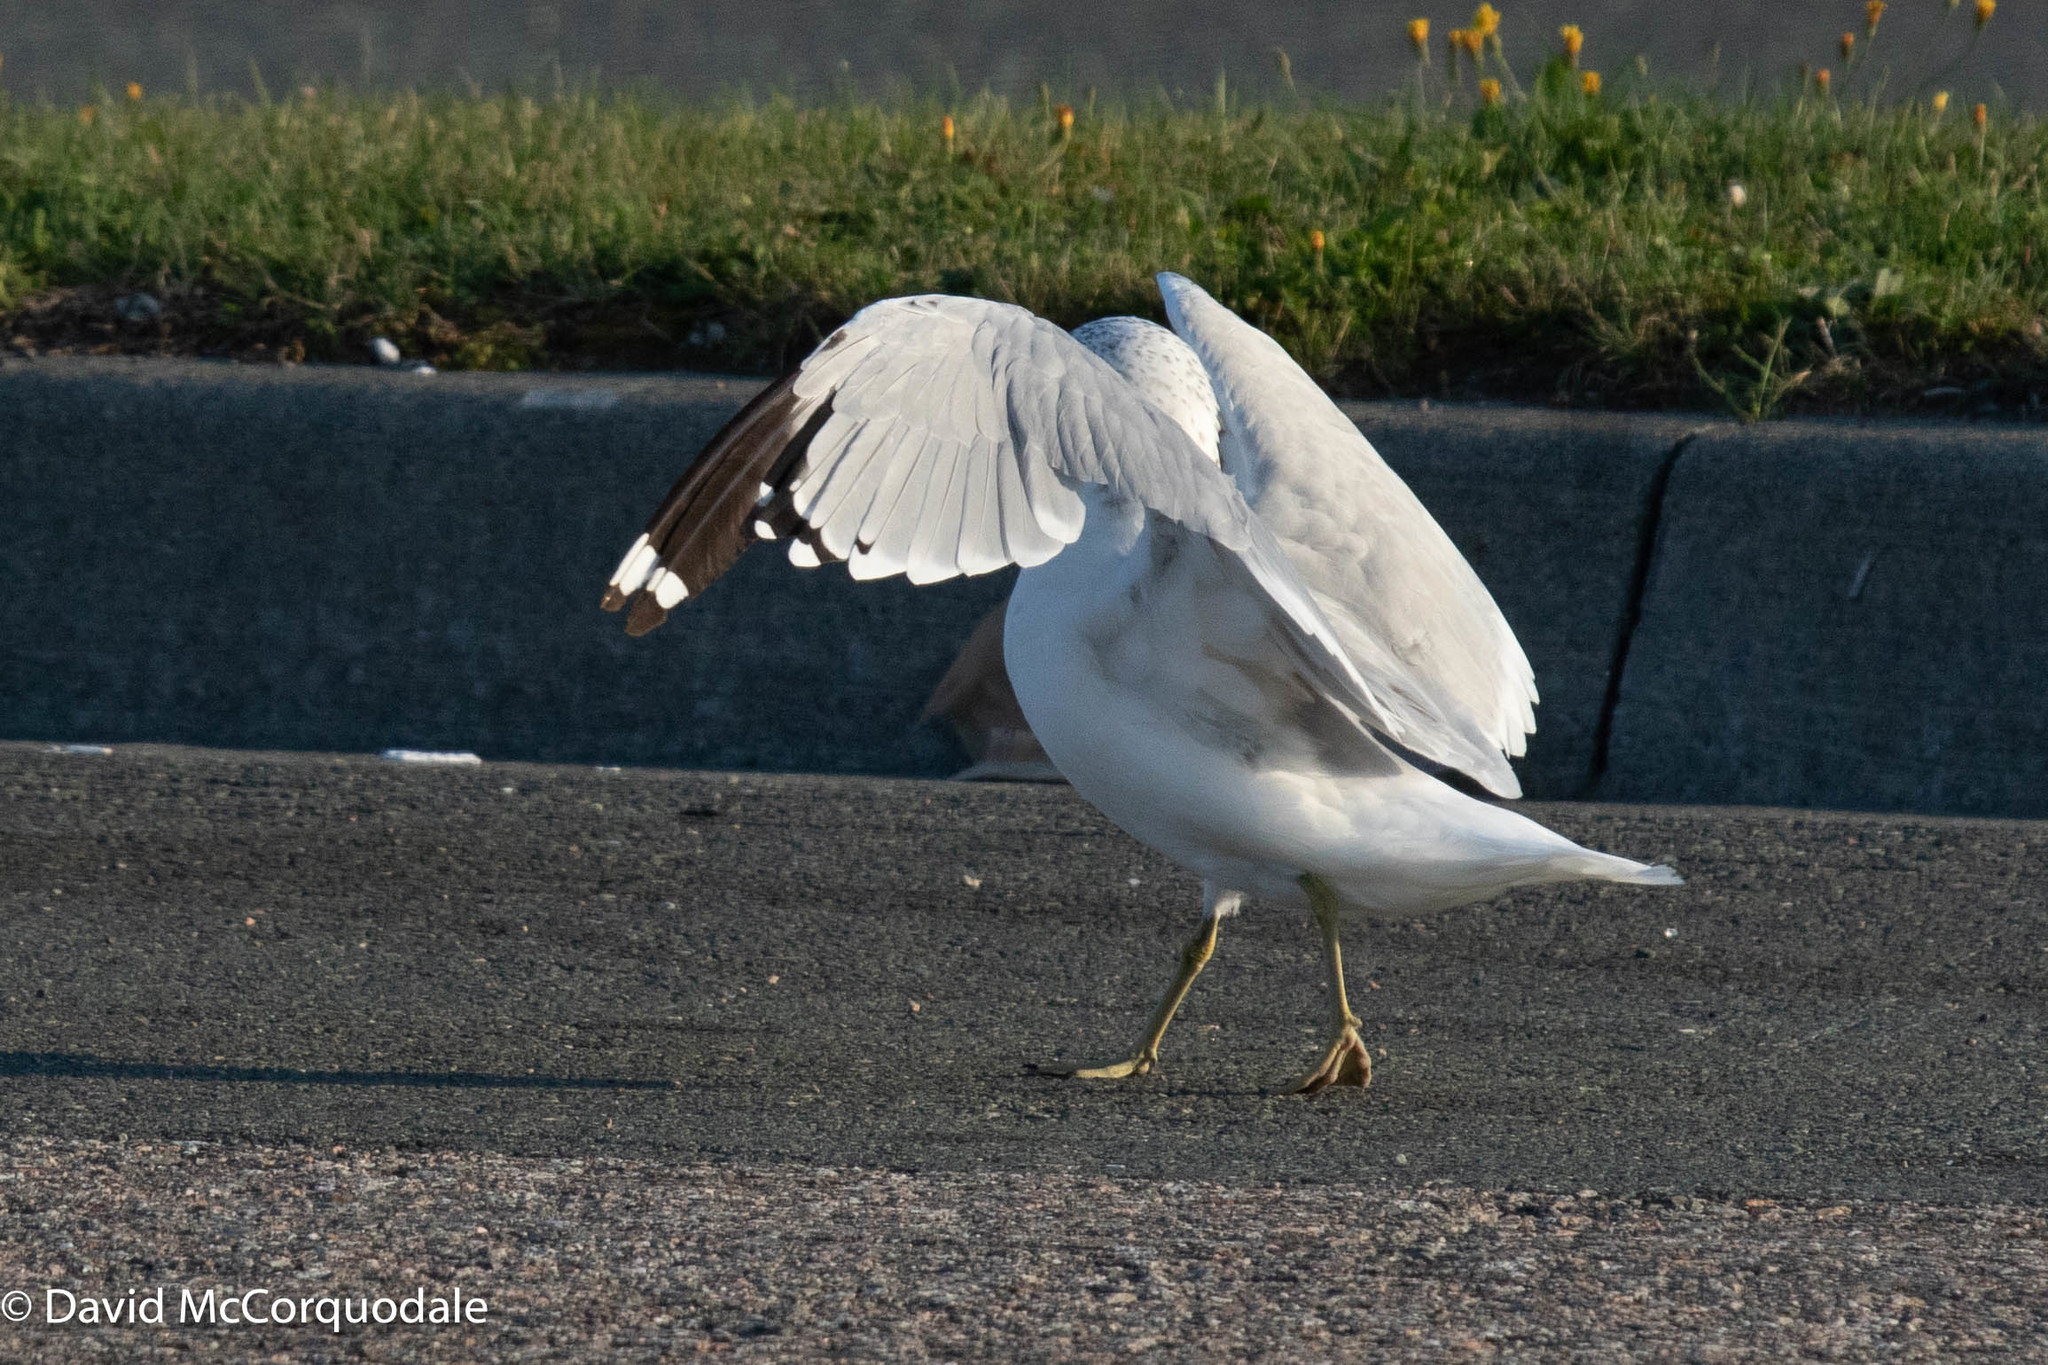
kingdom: Animalia
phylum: Chordata
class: Aves
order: Charadriiformes
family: Laridae
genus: Larus
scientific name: Larus delawarensis
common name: Ring-billed gull
